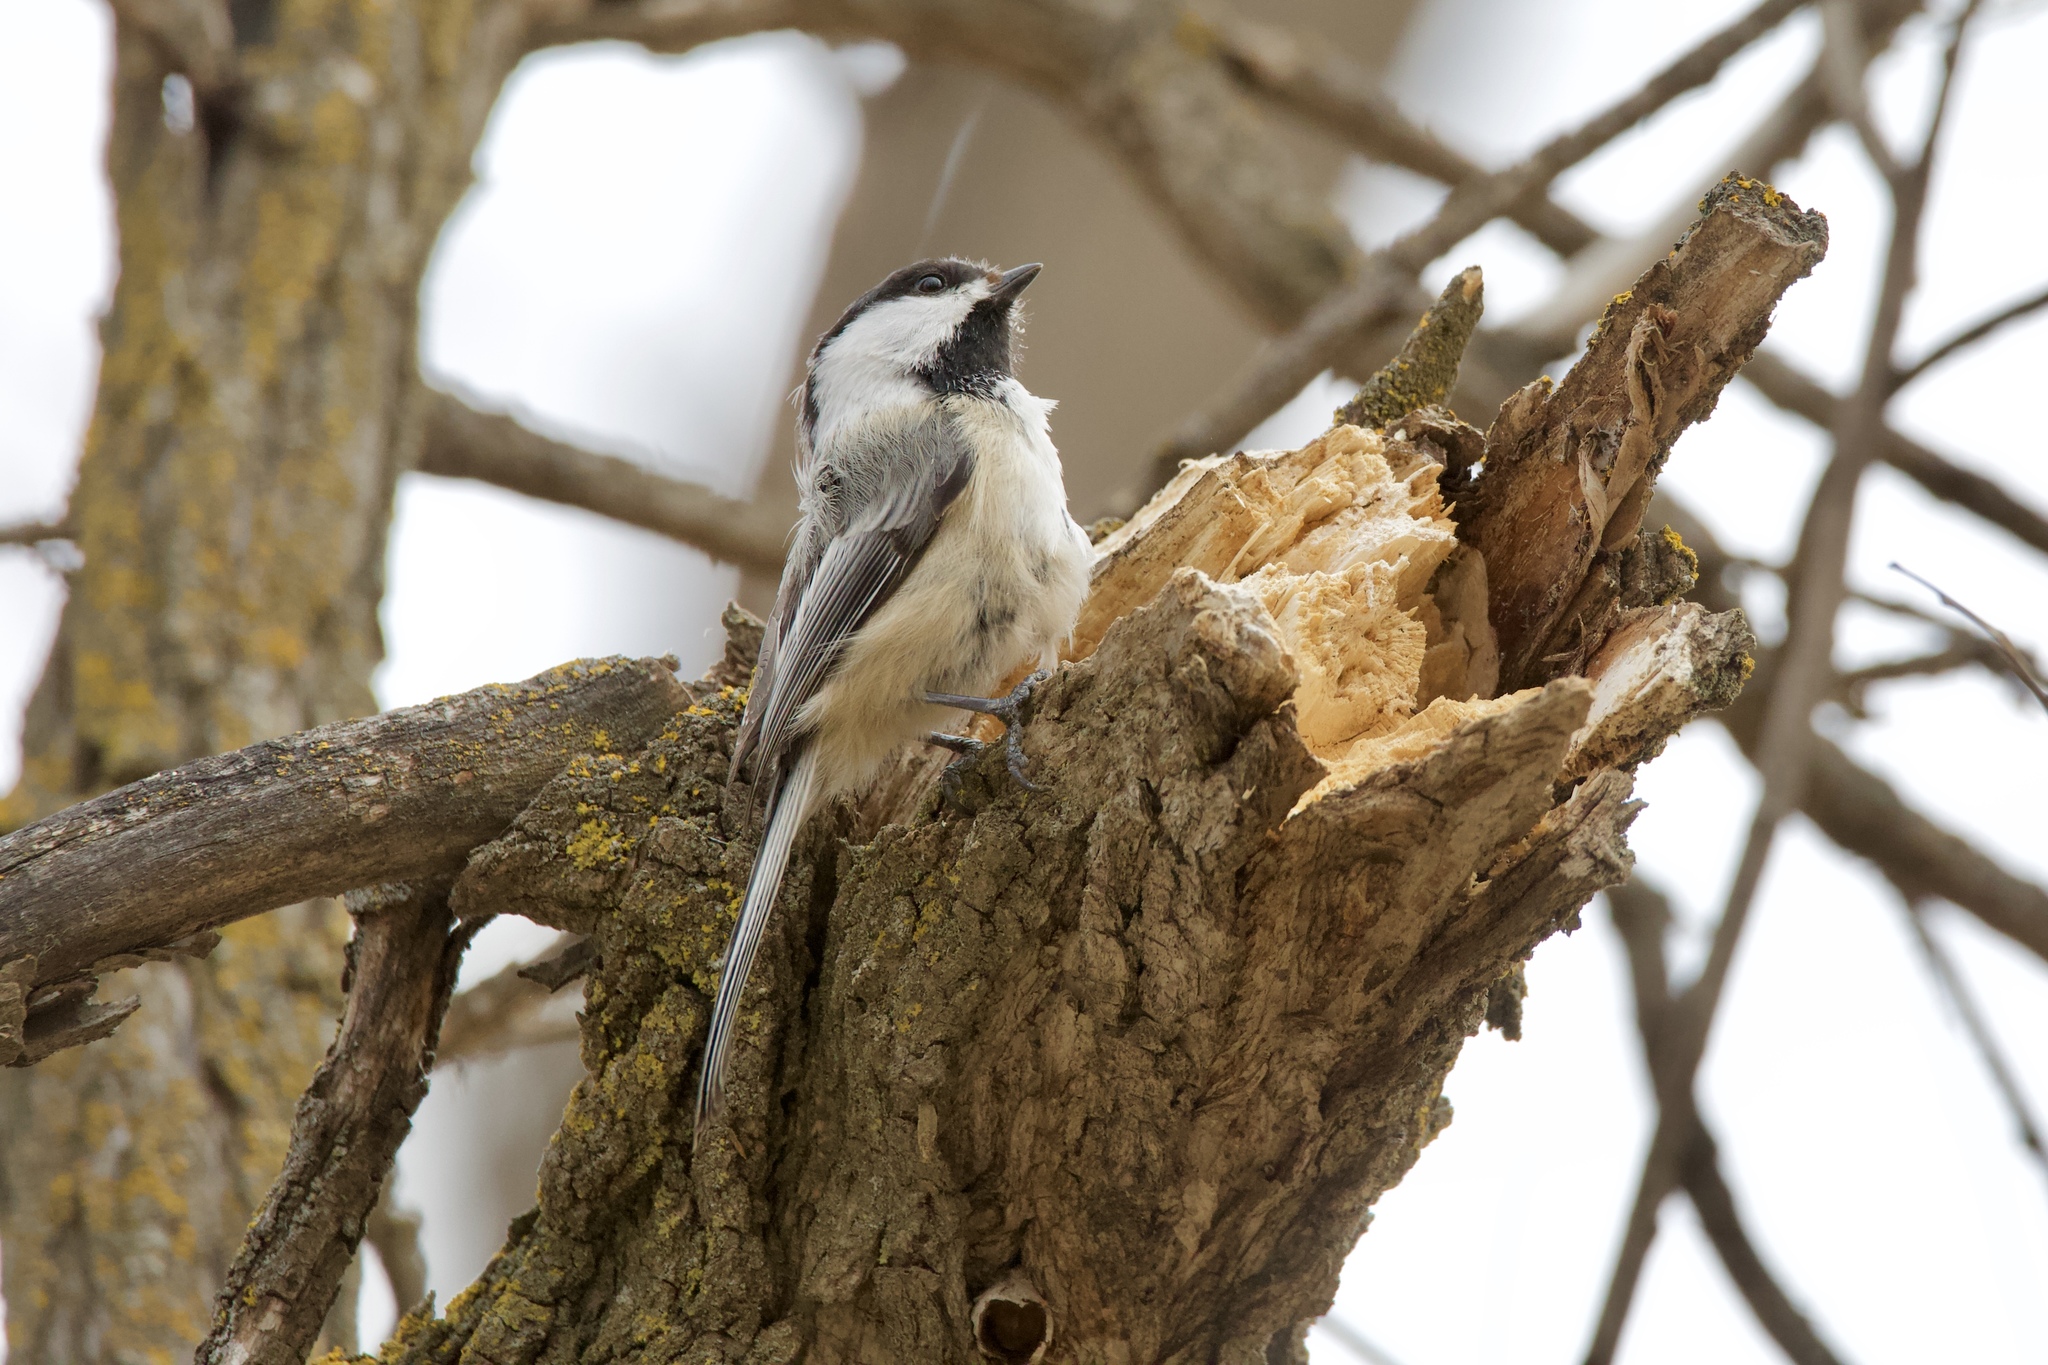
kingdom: Animalia
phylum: Chordata
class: Aves
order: Passeriformes
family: Paridae
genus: Poecile
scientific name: Poecile atricapillus
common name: Black-capped chickadee
